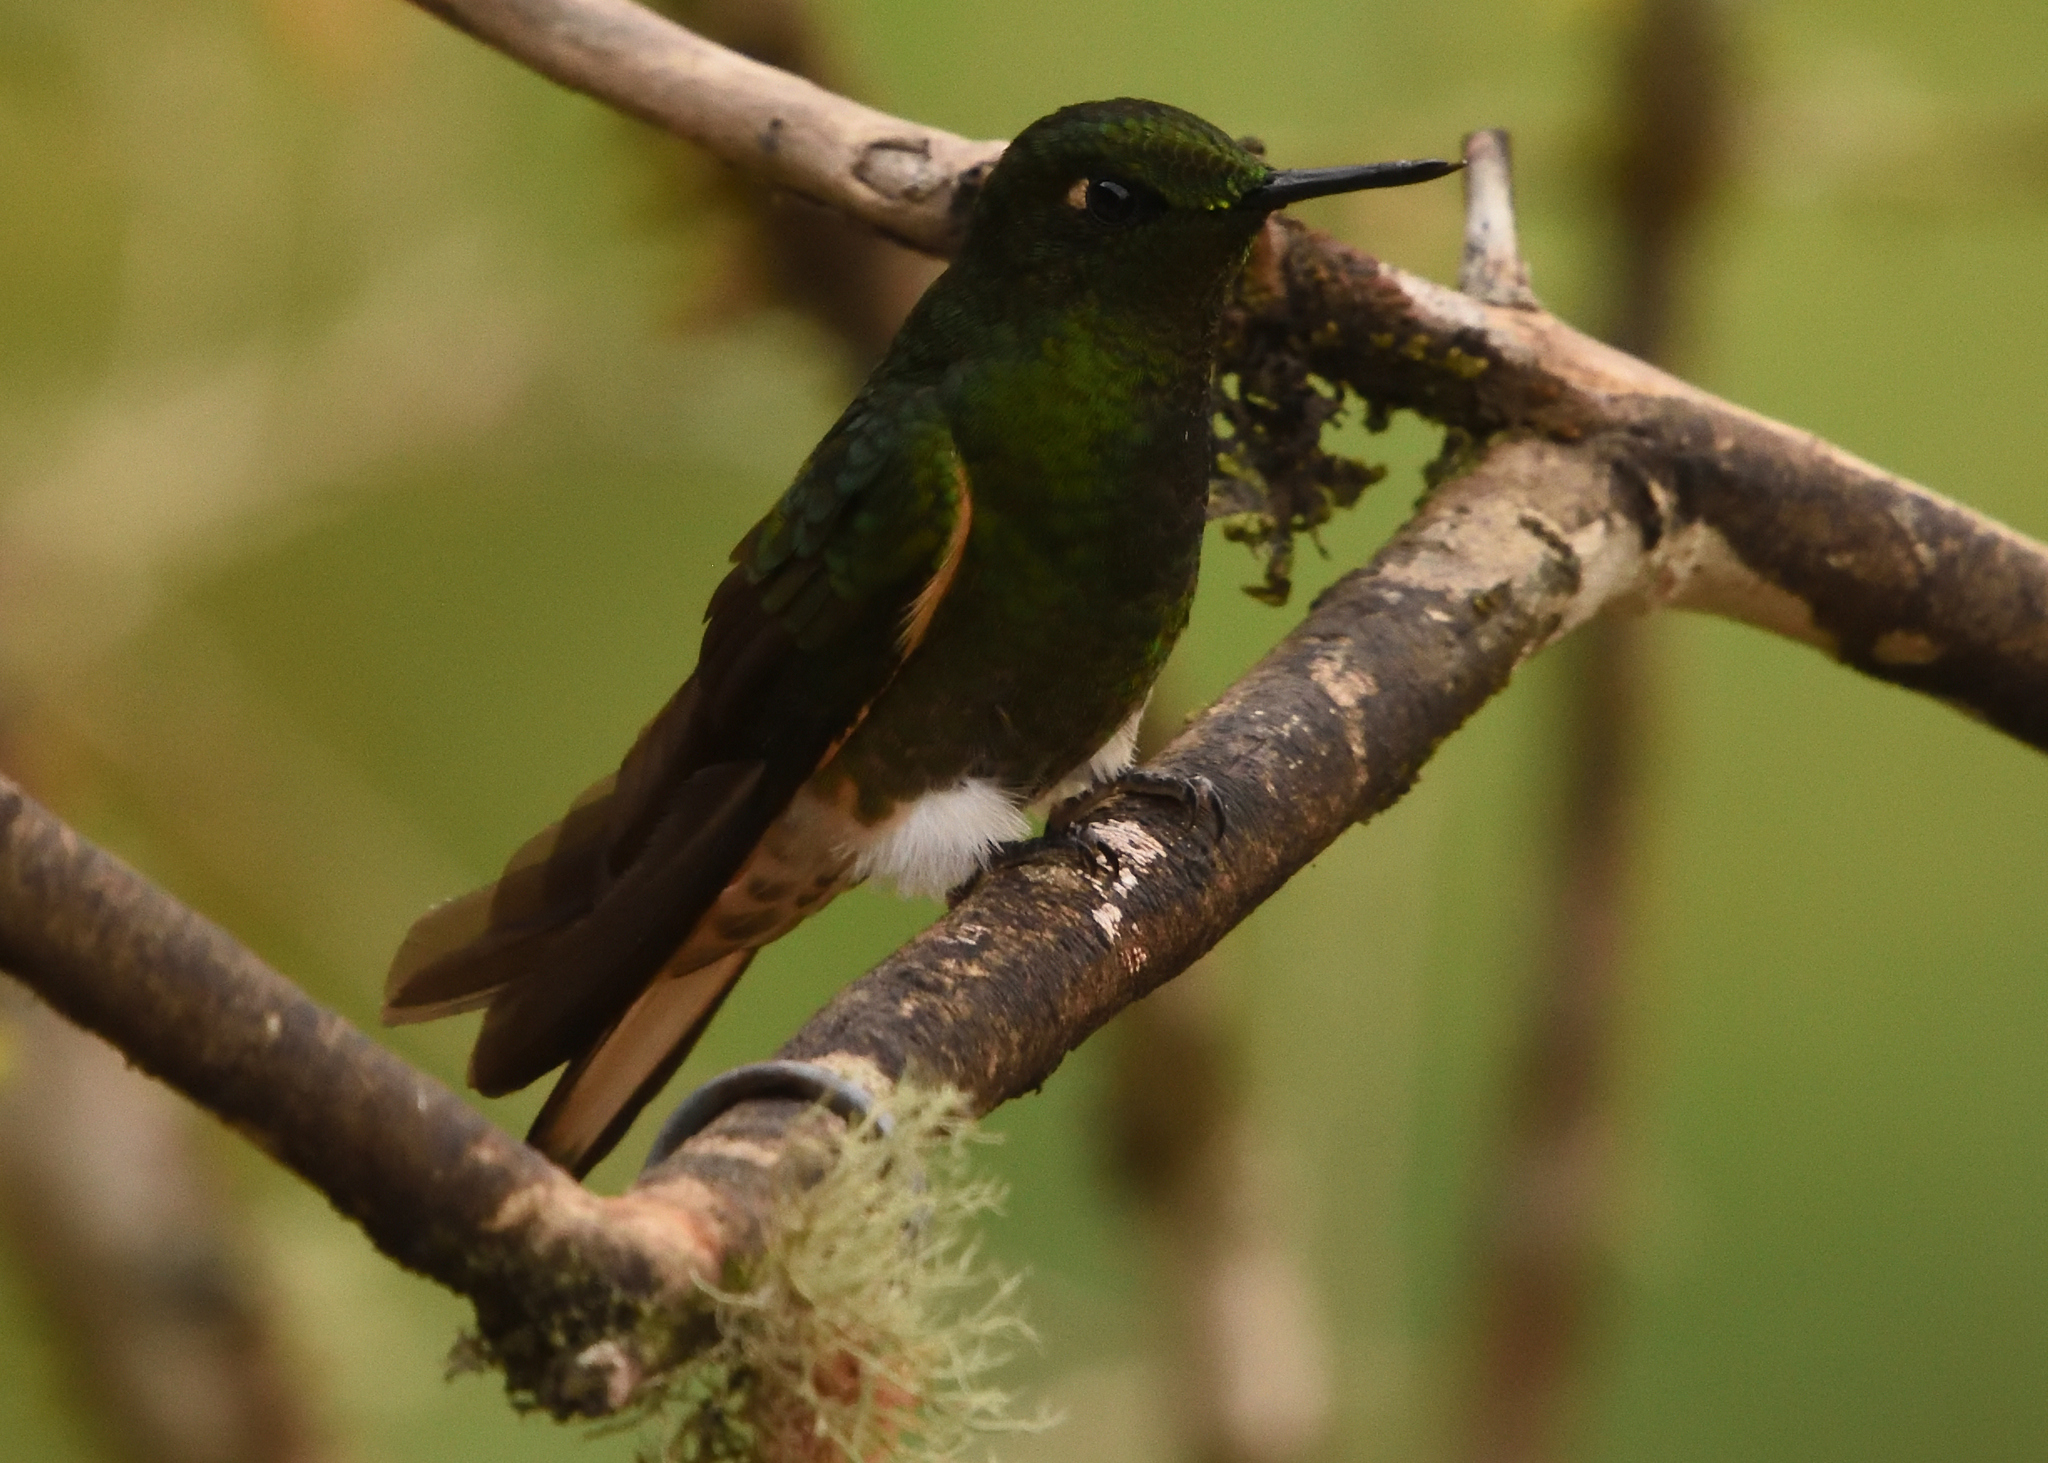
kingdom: Animalia
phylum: Chordata
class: Aves
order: Apodiformes
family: Trochilidae
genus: Boissonneaua
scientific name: Boissonneaua flavescens
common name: Buff-tailed coronet
